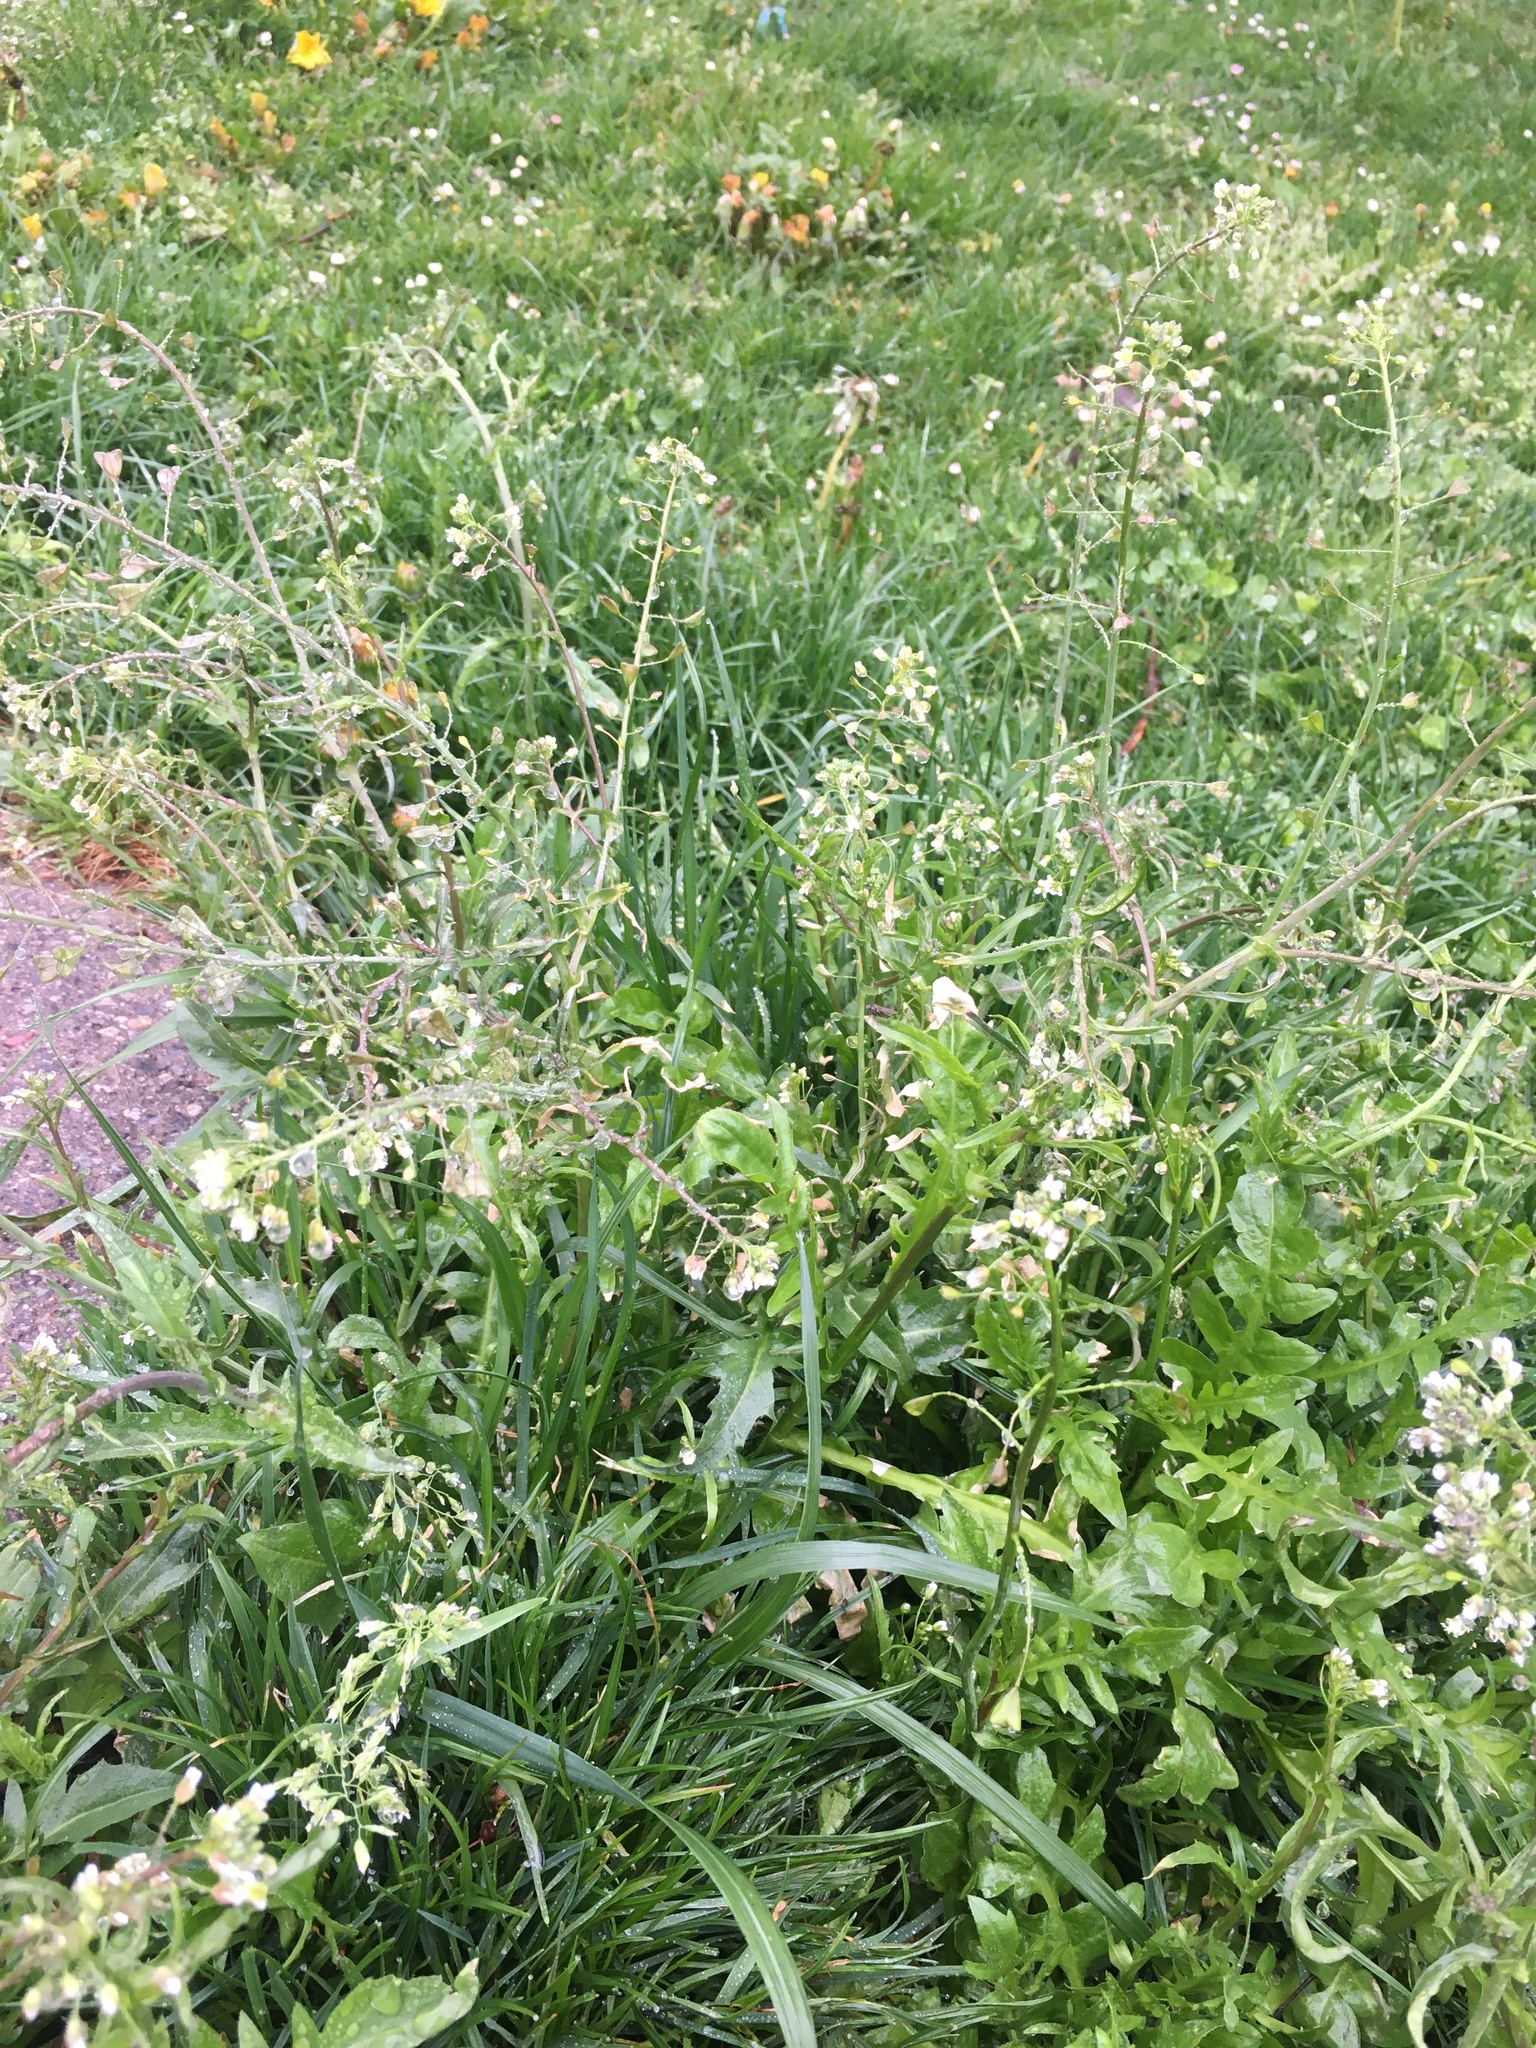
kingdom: Plantae
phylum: Tracheophyta
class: Magnoliopsida
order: Brassicales
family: Brassicaceae
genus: Capsella
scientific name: Capsella bursa-pastoris
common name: Shepherd's purse
